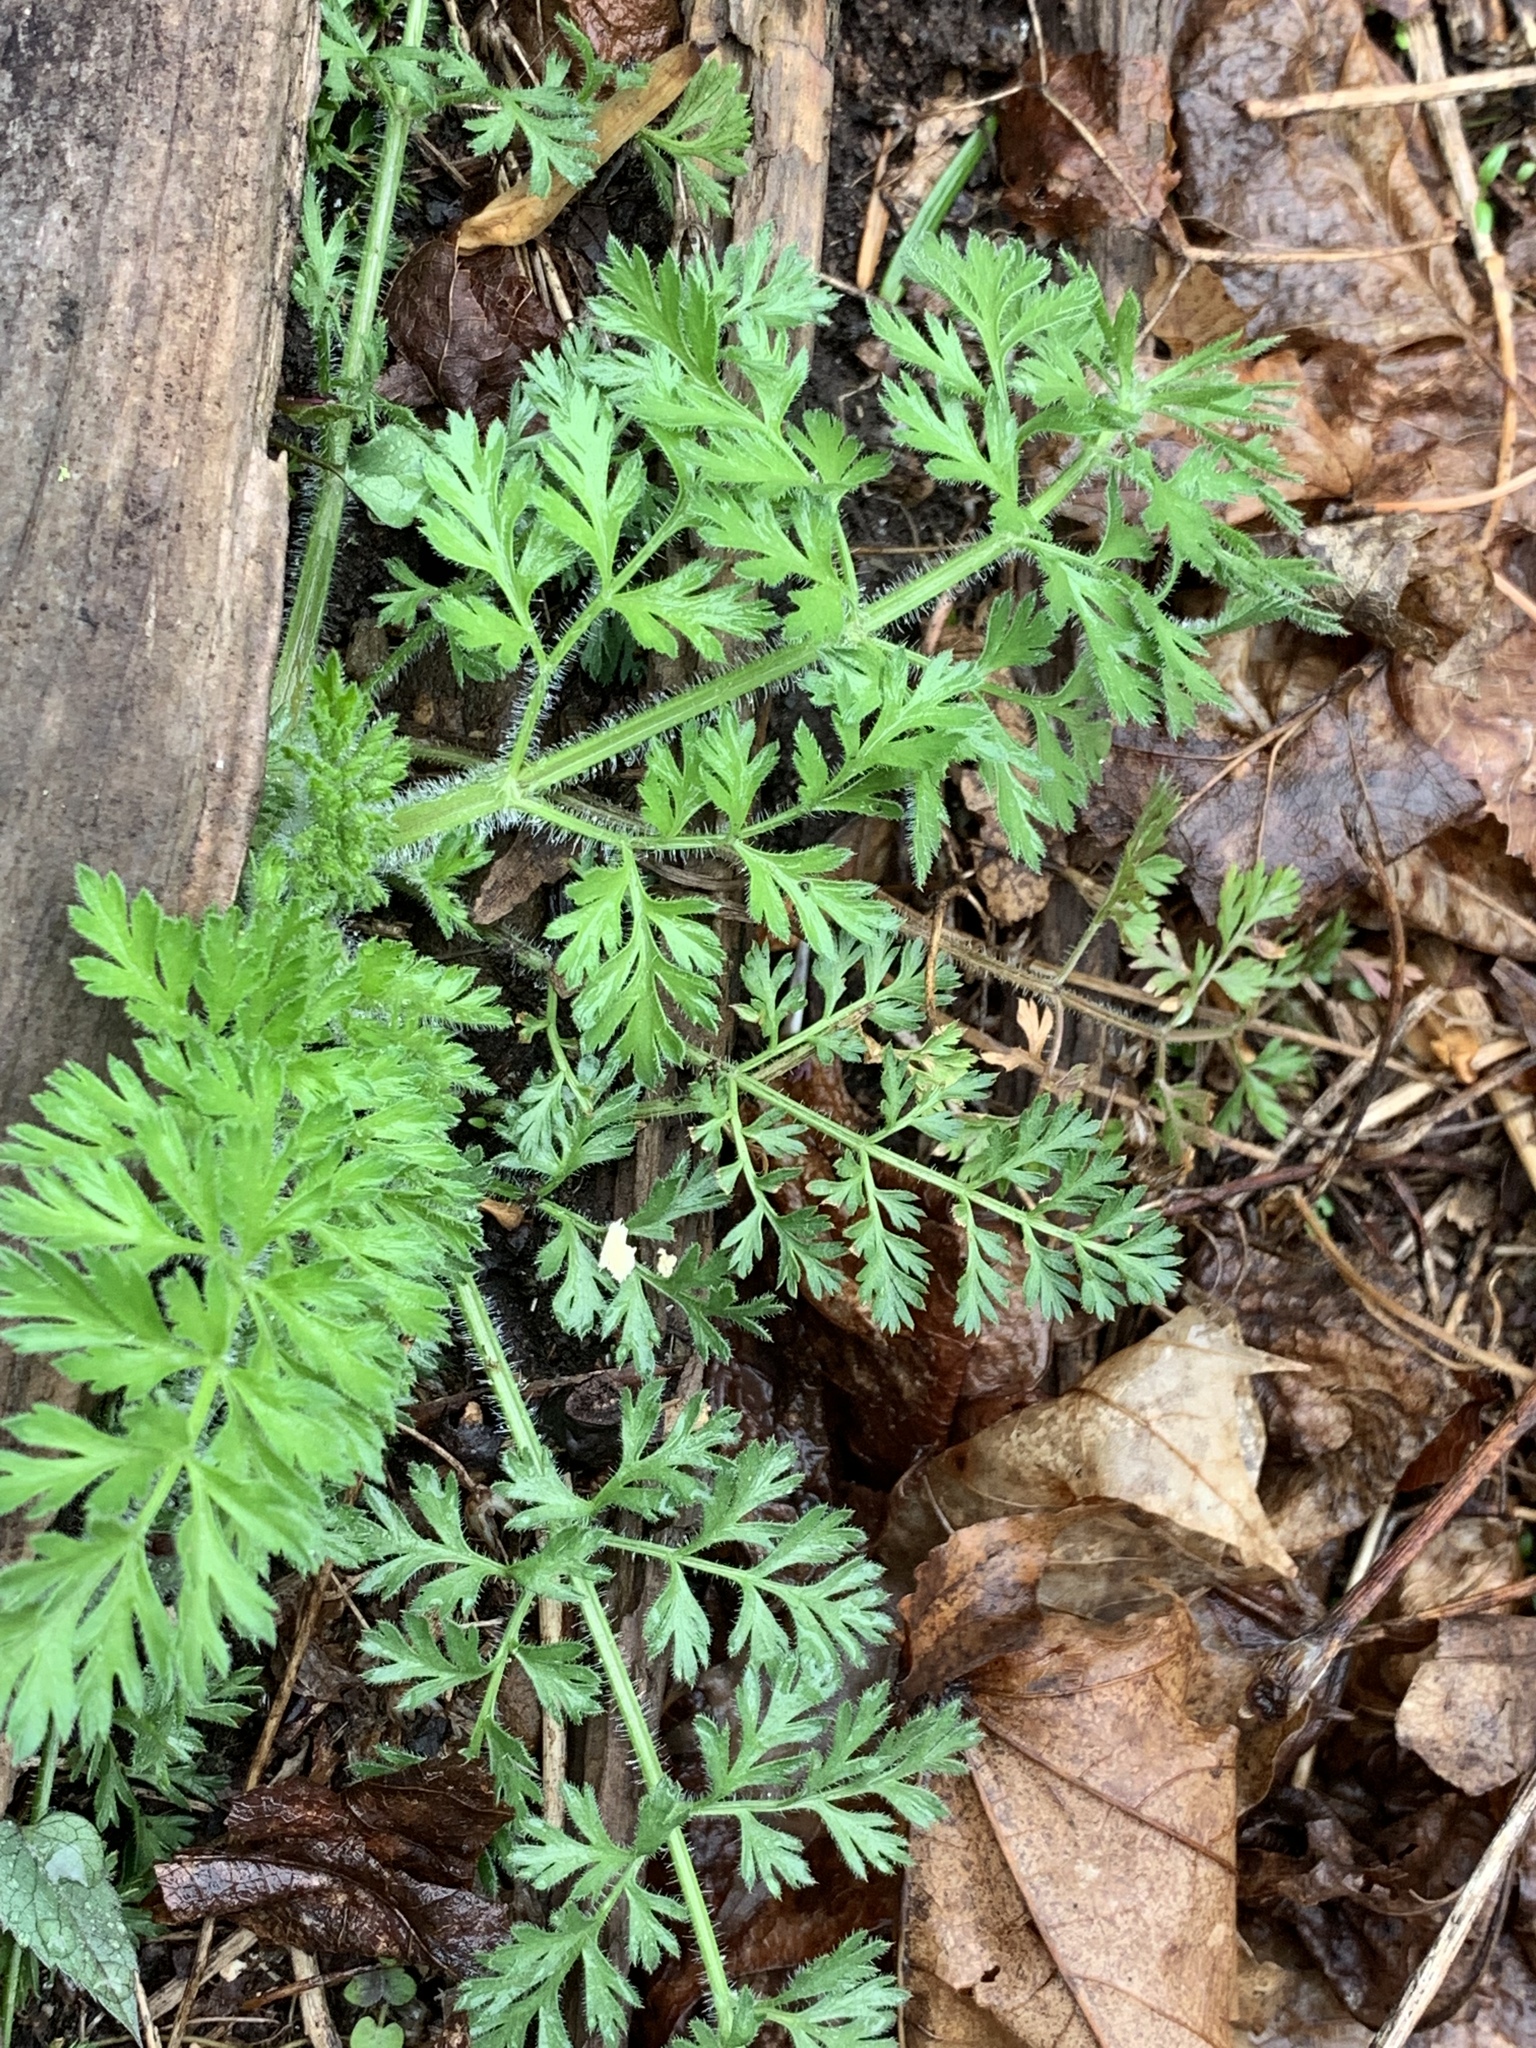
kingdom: Plantae
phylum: Tracheophyta
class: Magnoliopsida
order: Apiales
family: Apiaceae
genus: Daucus
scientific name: Daucus carota
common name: Wild carrot
